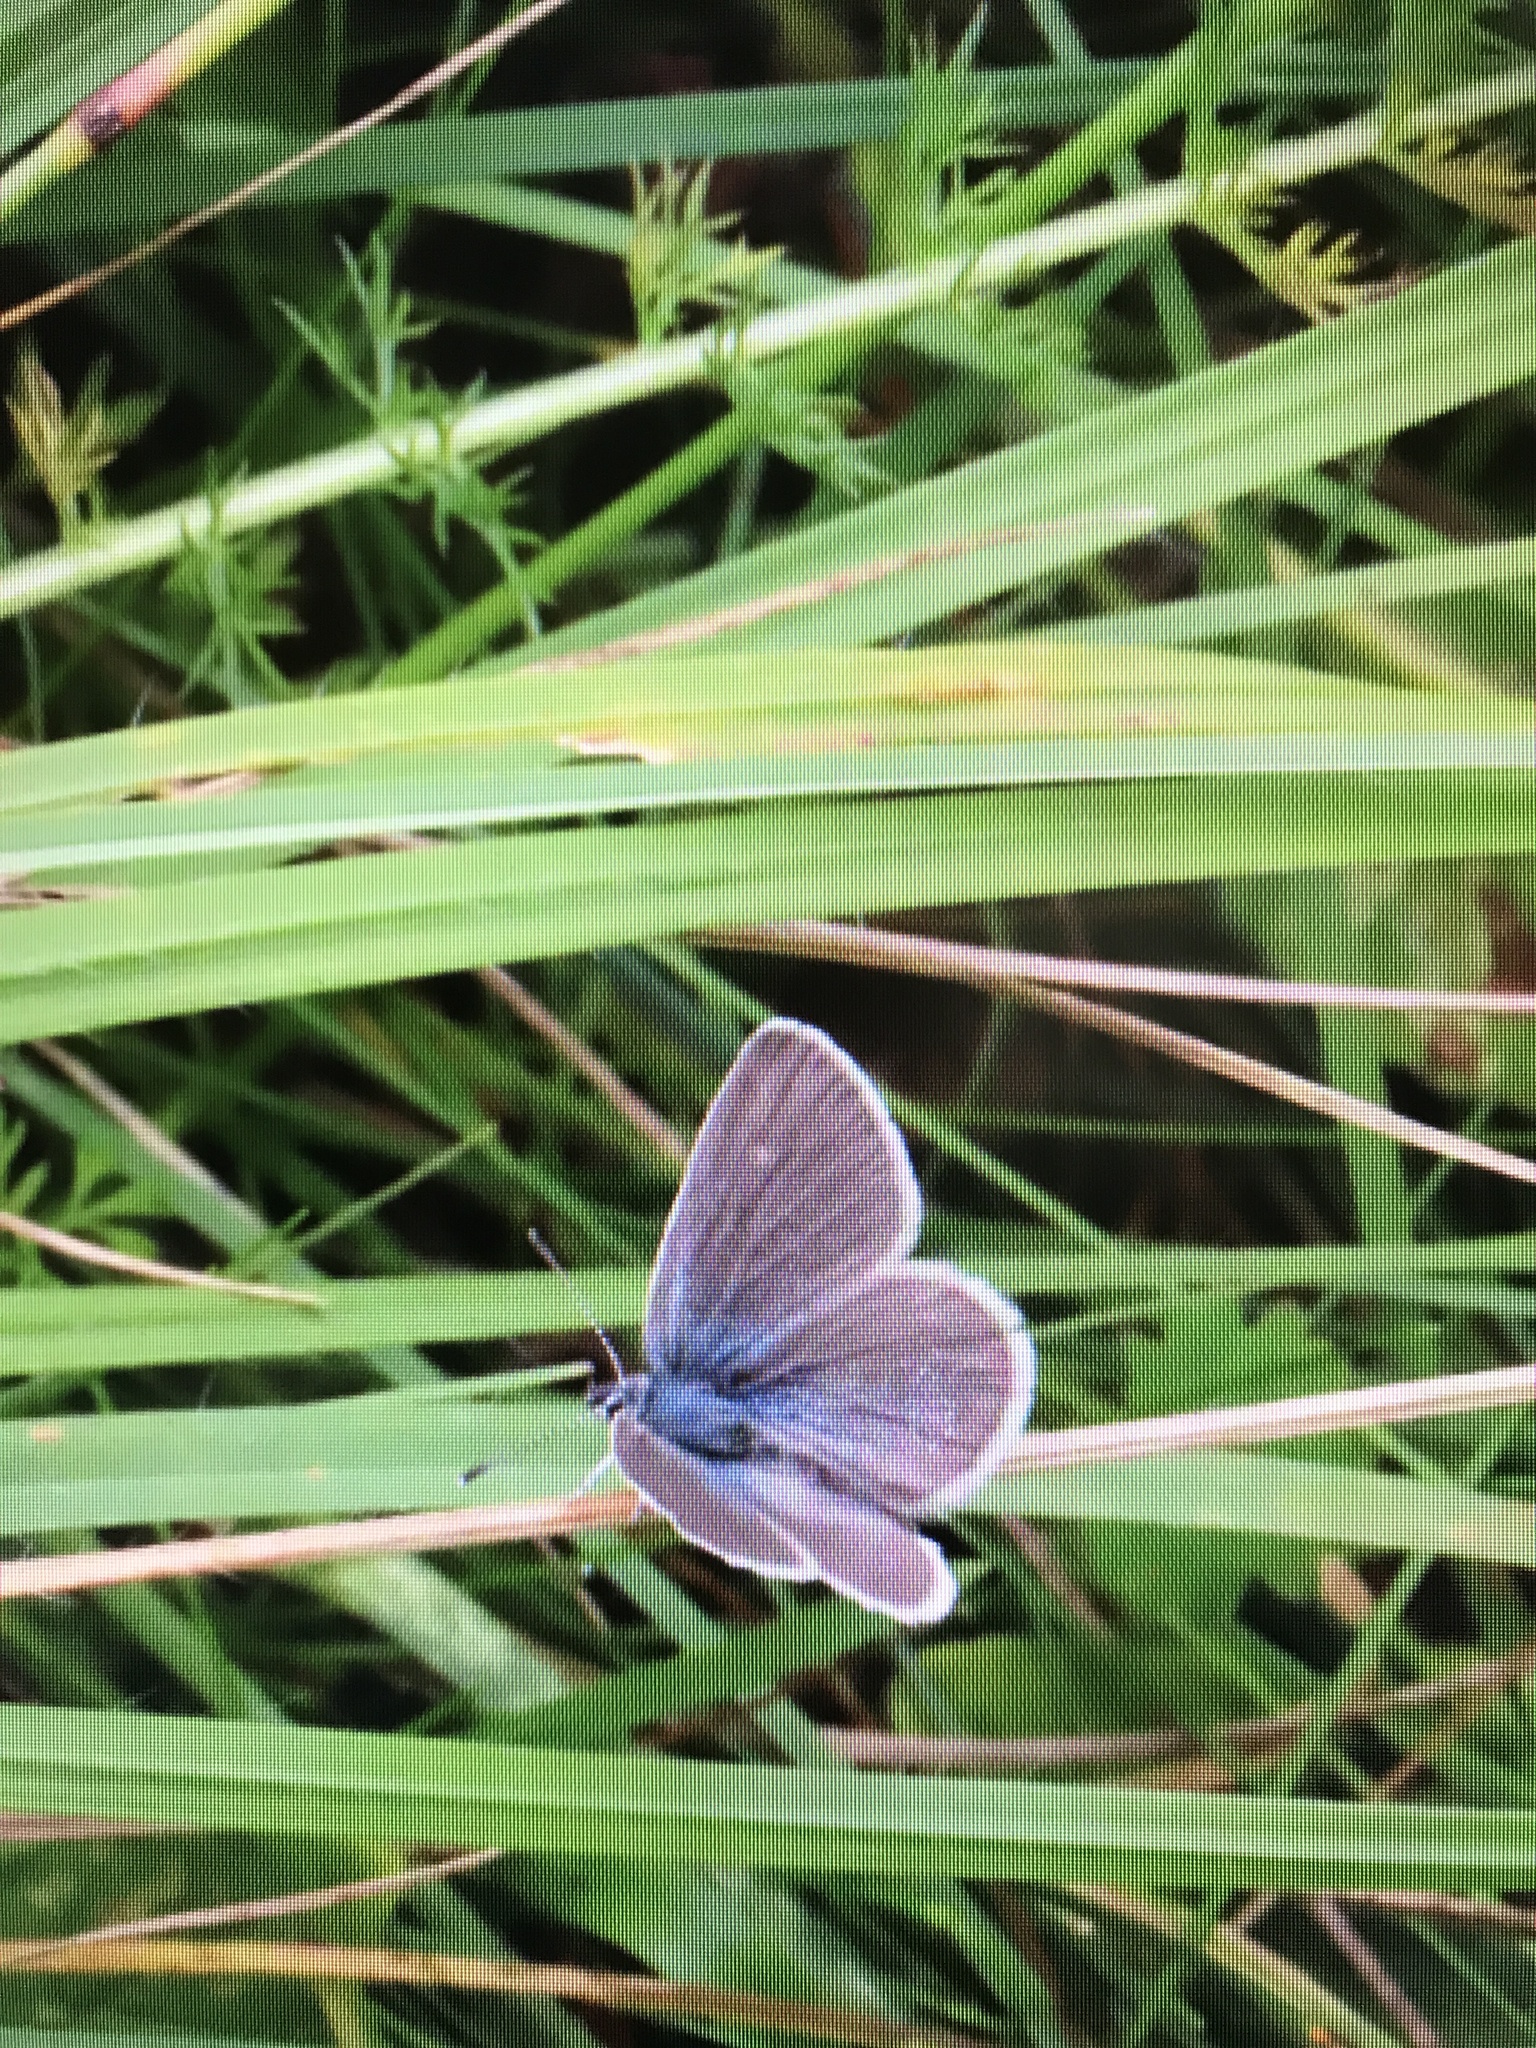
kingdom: Animalia
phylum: Arthropoda
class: Insecta
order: Lepidoptera
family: Lycaenidae
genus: Cupido
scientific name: Cupido minimus
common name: Small blue
